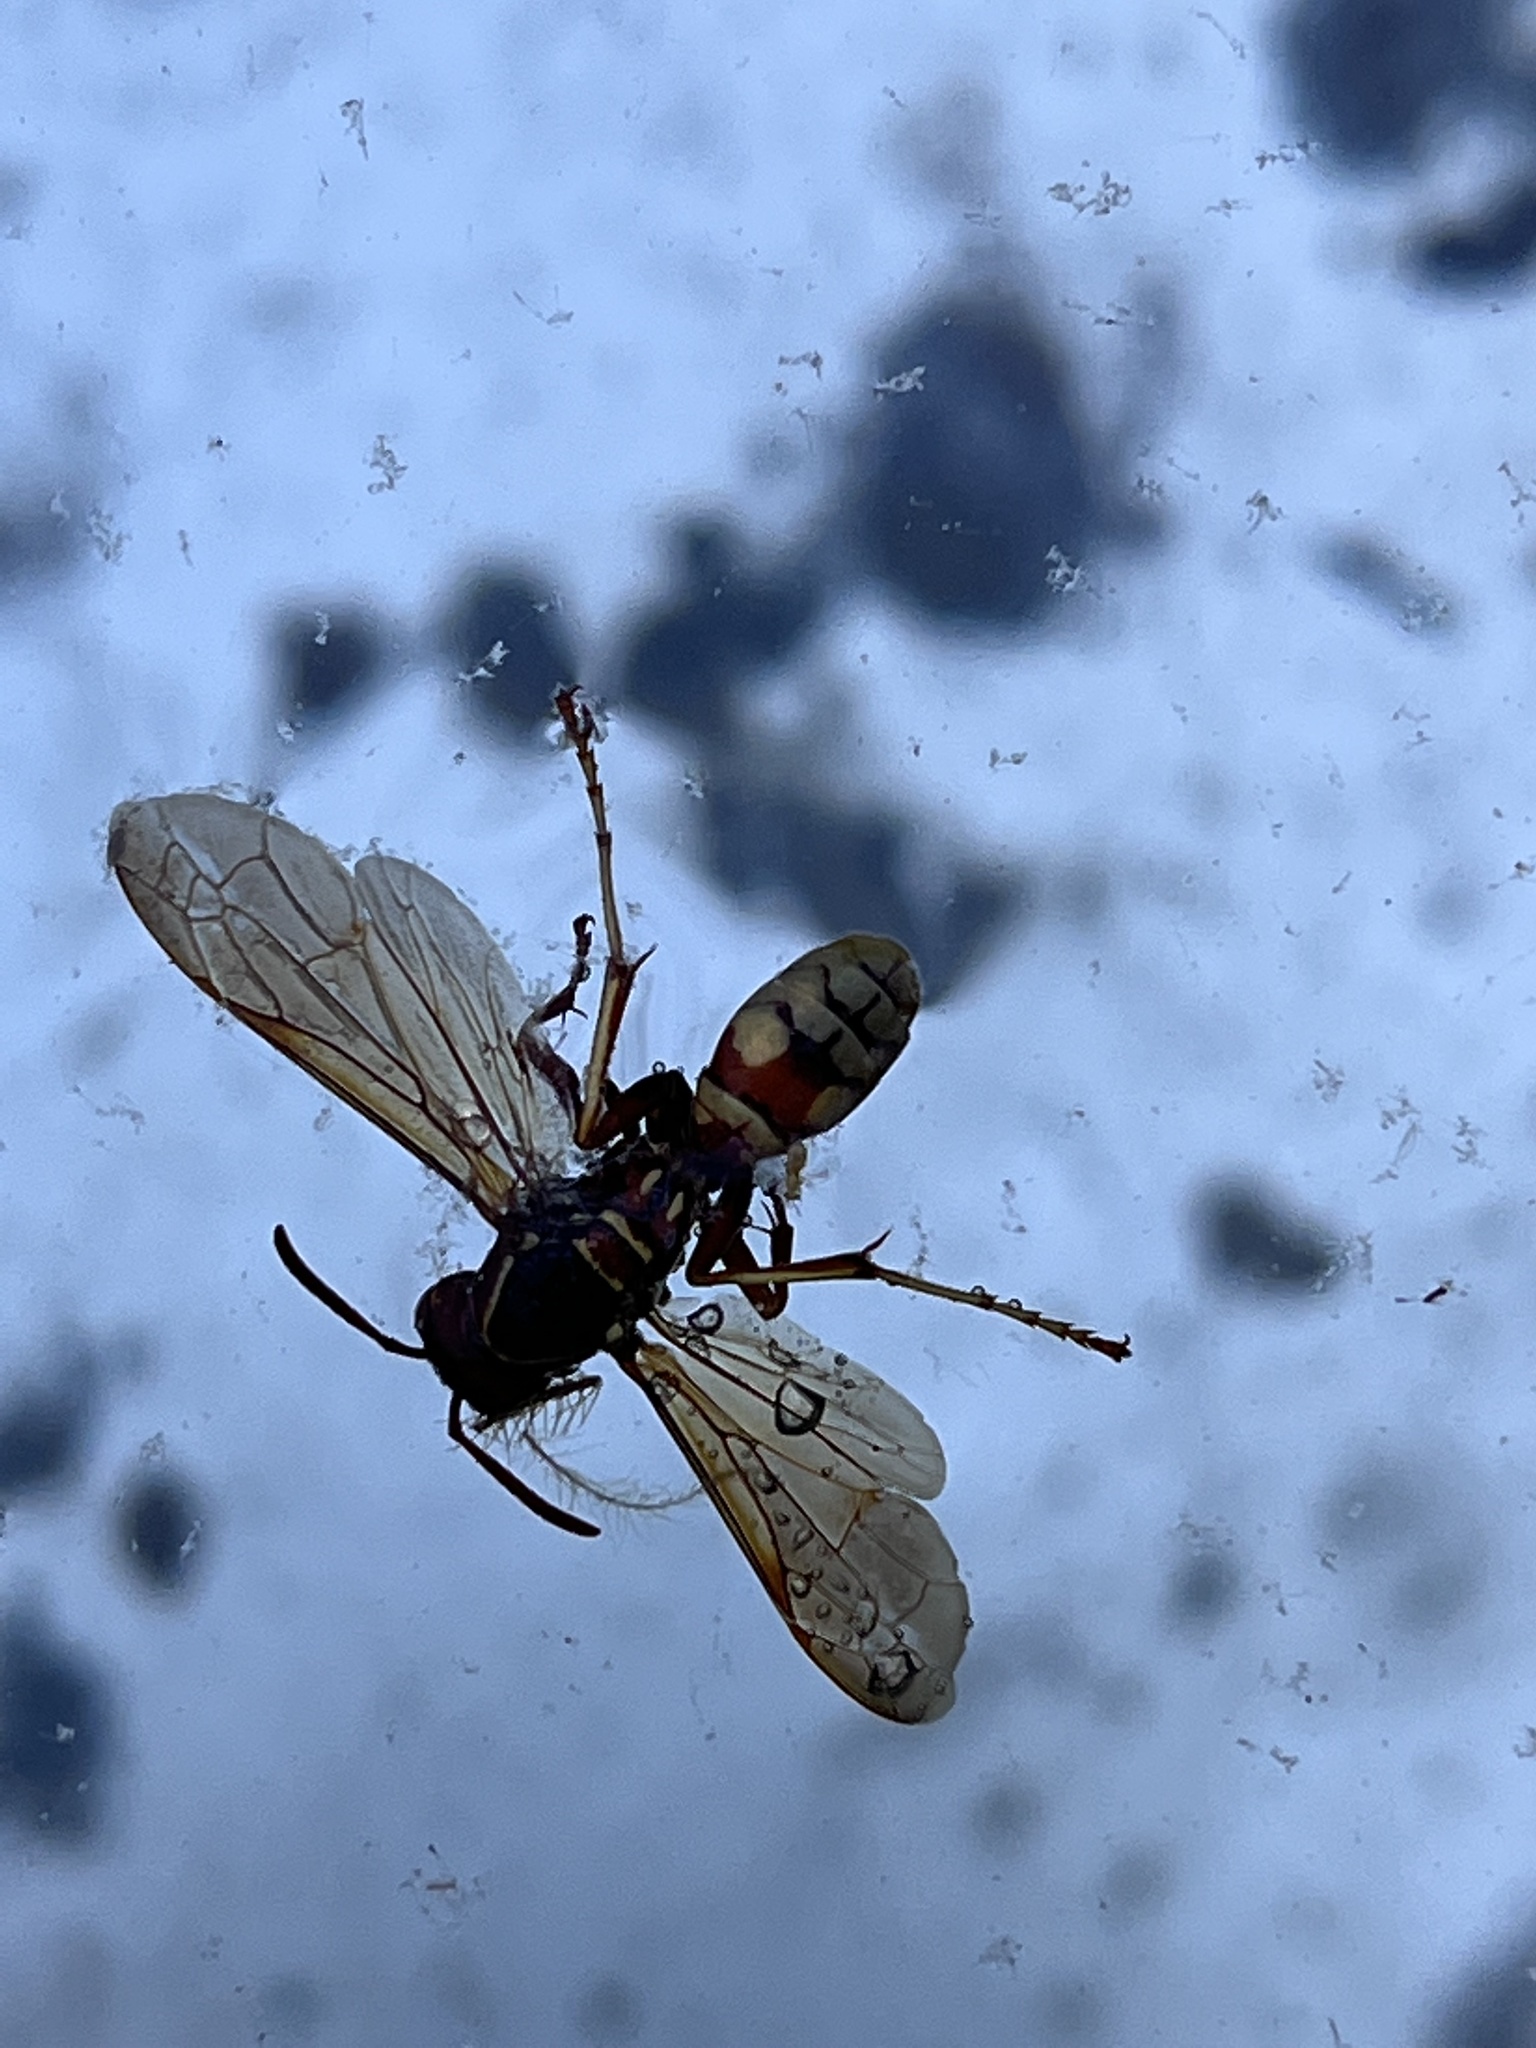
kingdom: Animalia
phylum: Arthropoda
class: Insecta
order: Hymenoptera
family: Eumenidae
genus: Polistes
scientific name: Polistes aurifer
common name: Paper wasp
